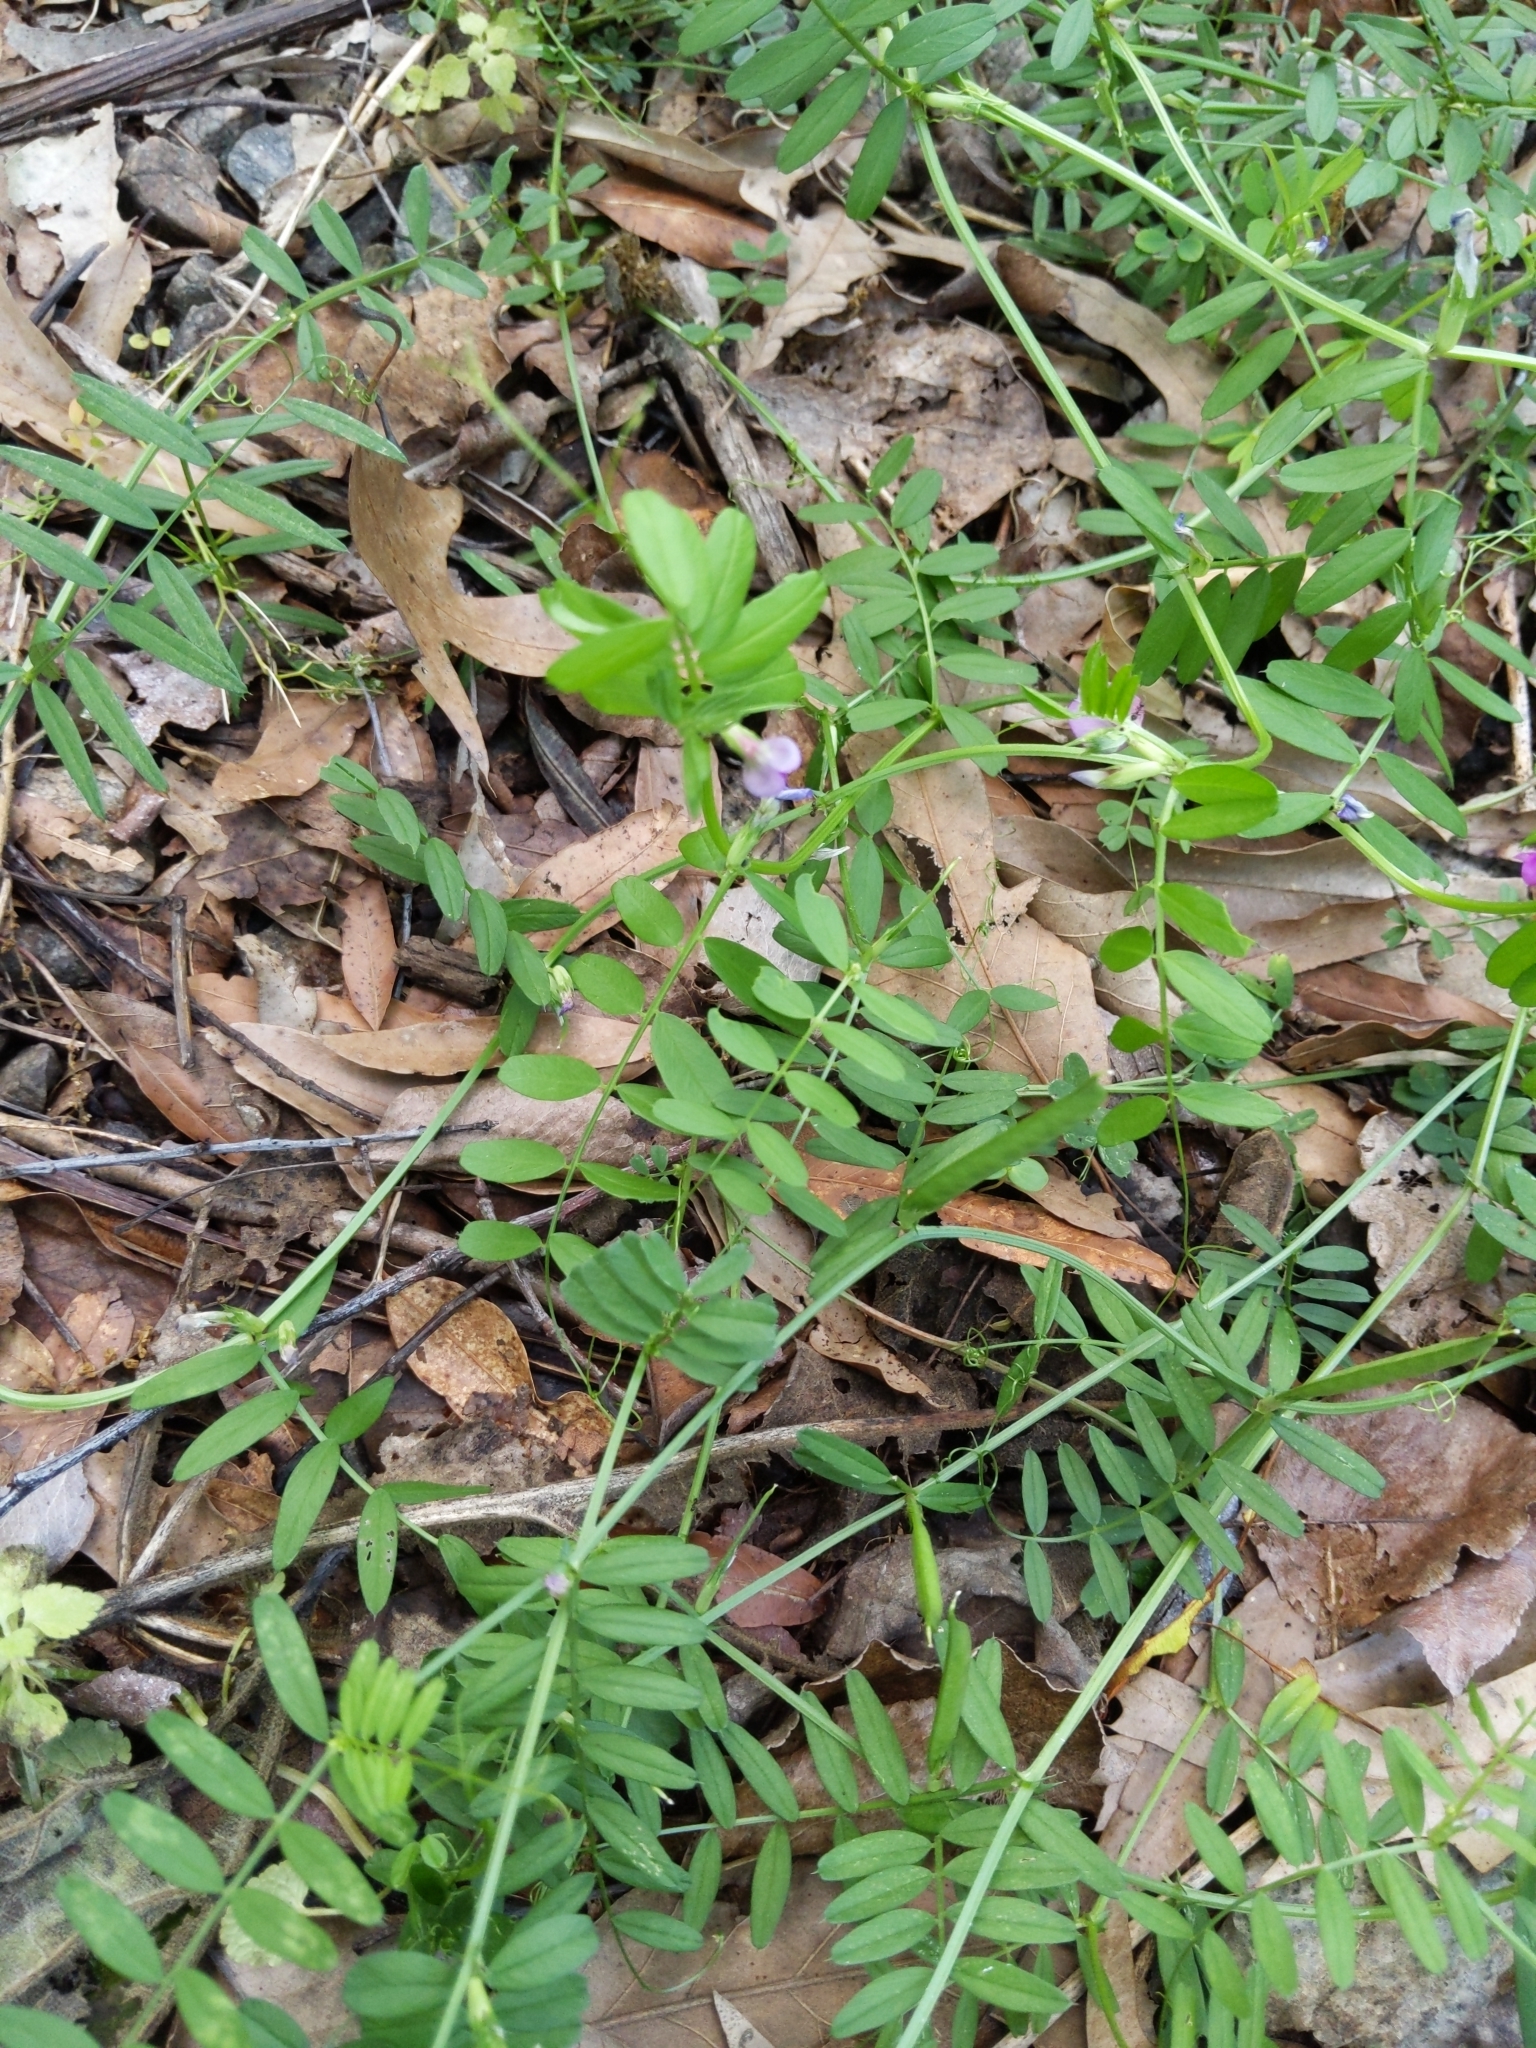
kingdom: Plantae
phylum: Tracheophyta
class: Magnoliopsida
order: Fabales
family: Fabaceae
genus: Vicia
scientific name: Vicia sativa
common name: Garden vetch
